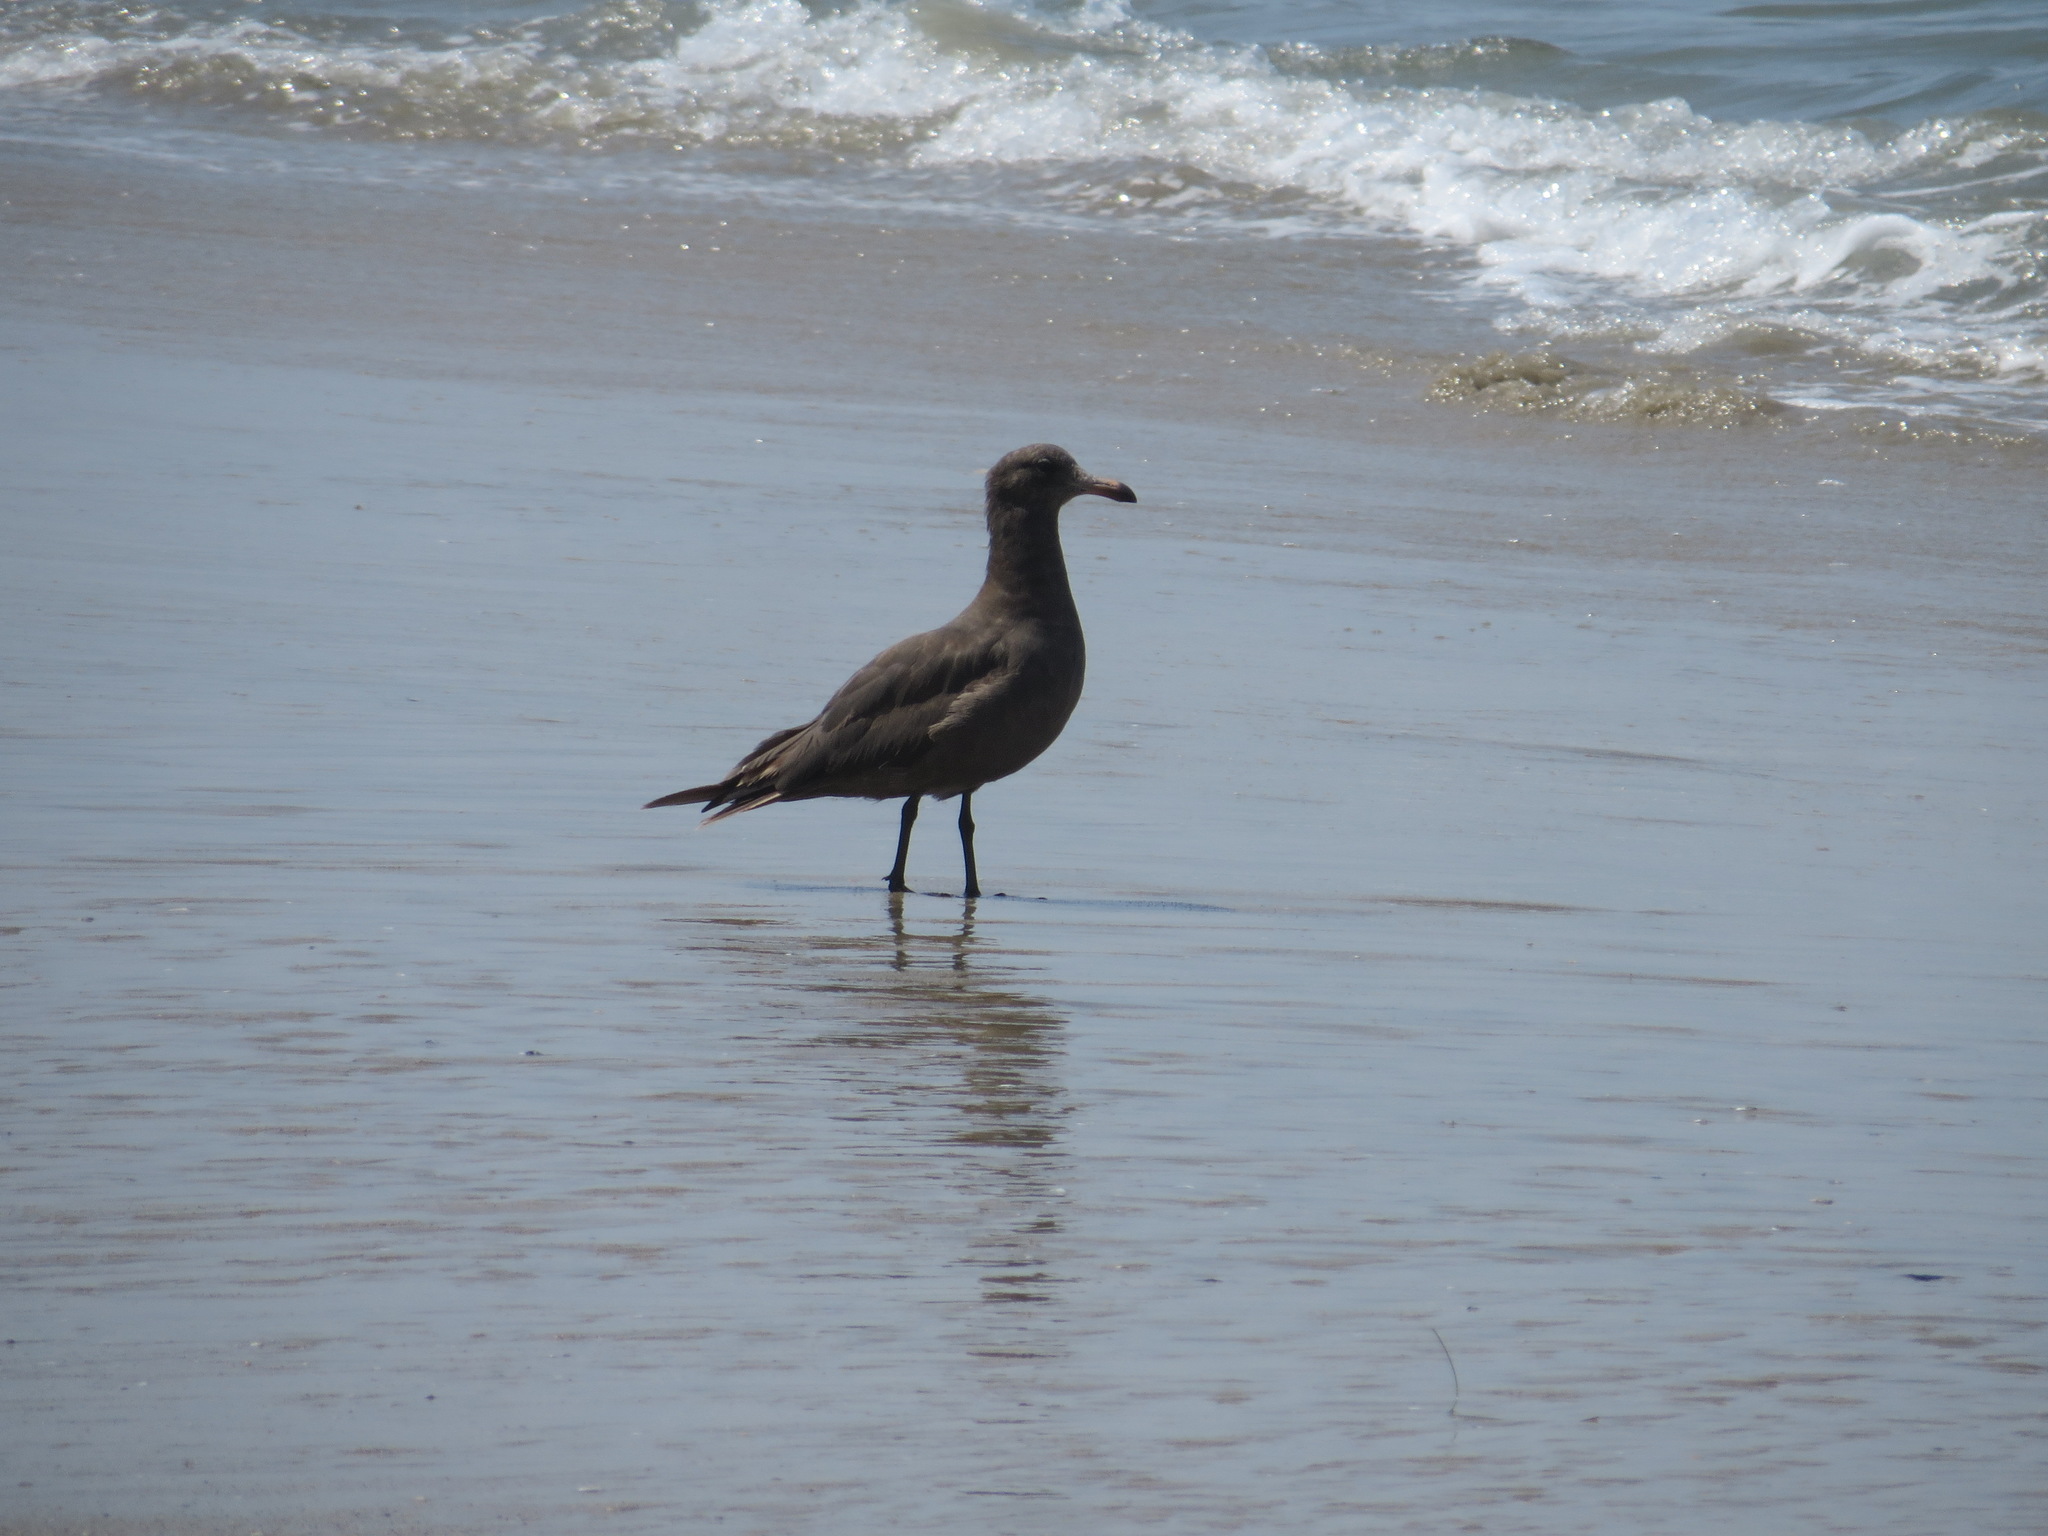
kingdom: Animalia
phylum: Chordata
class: Aves
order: Charadriiformes
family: Laridae
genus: Larus
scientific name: Larus heermanni
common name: Heermann's gull
